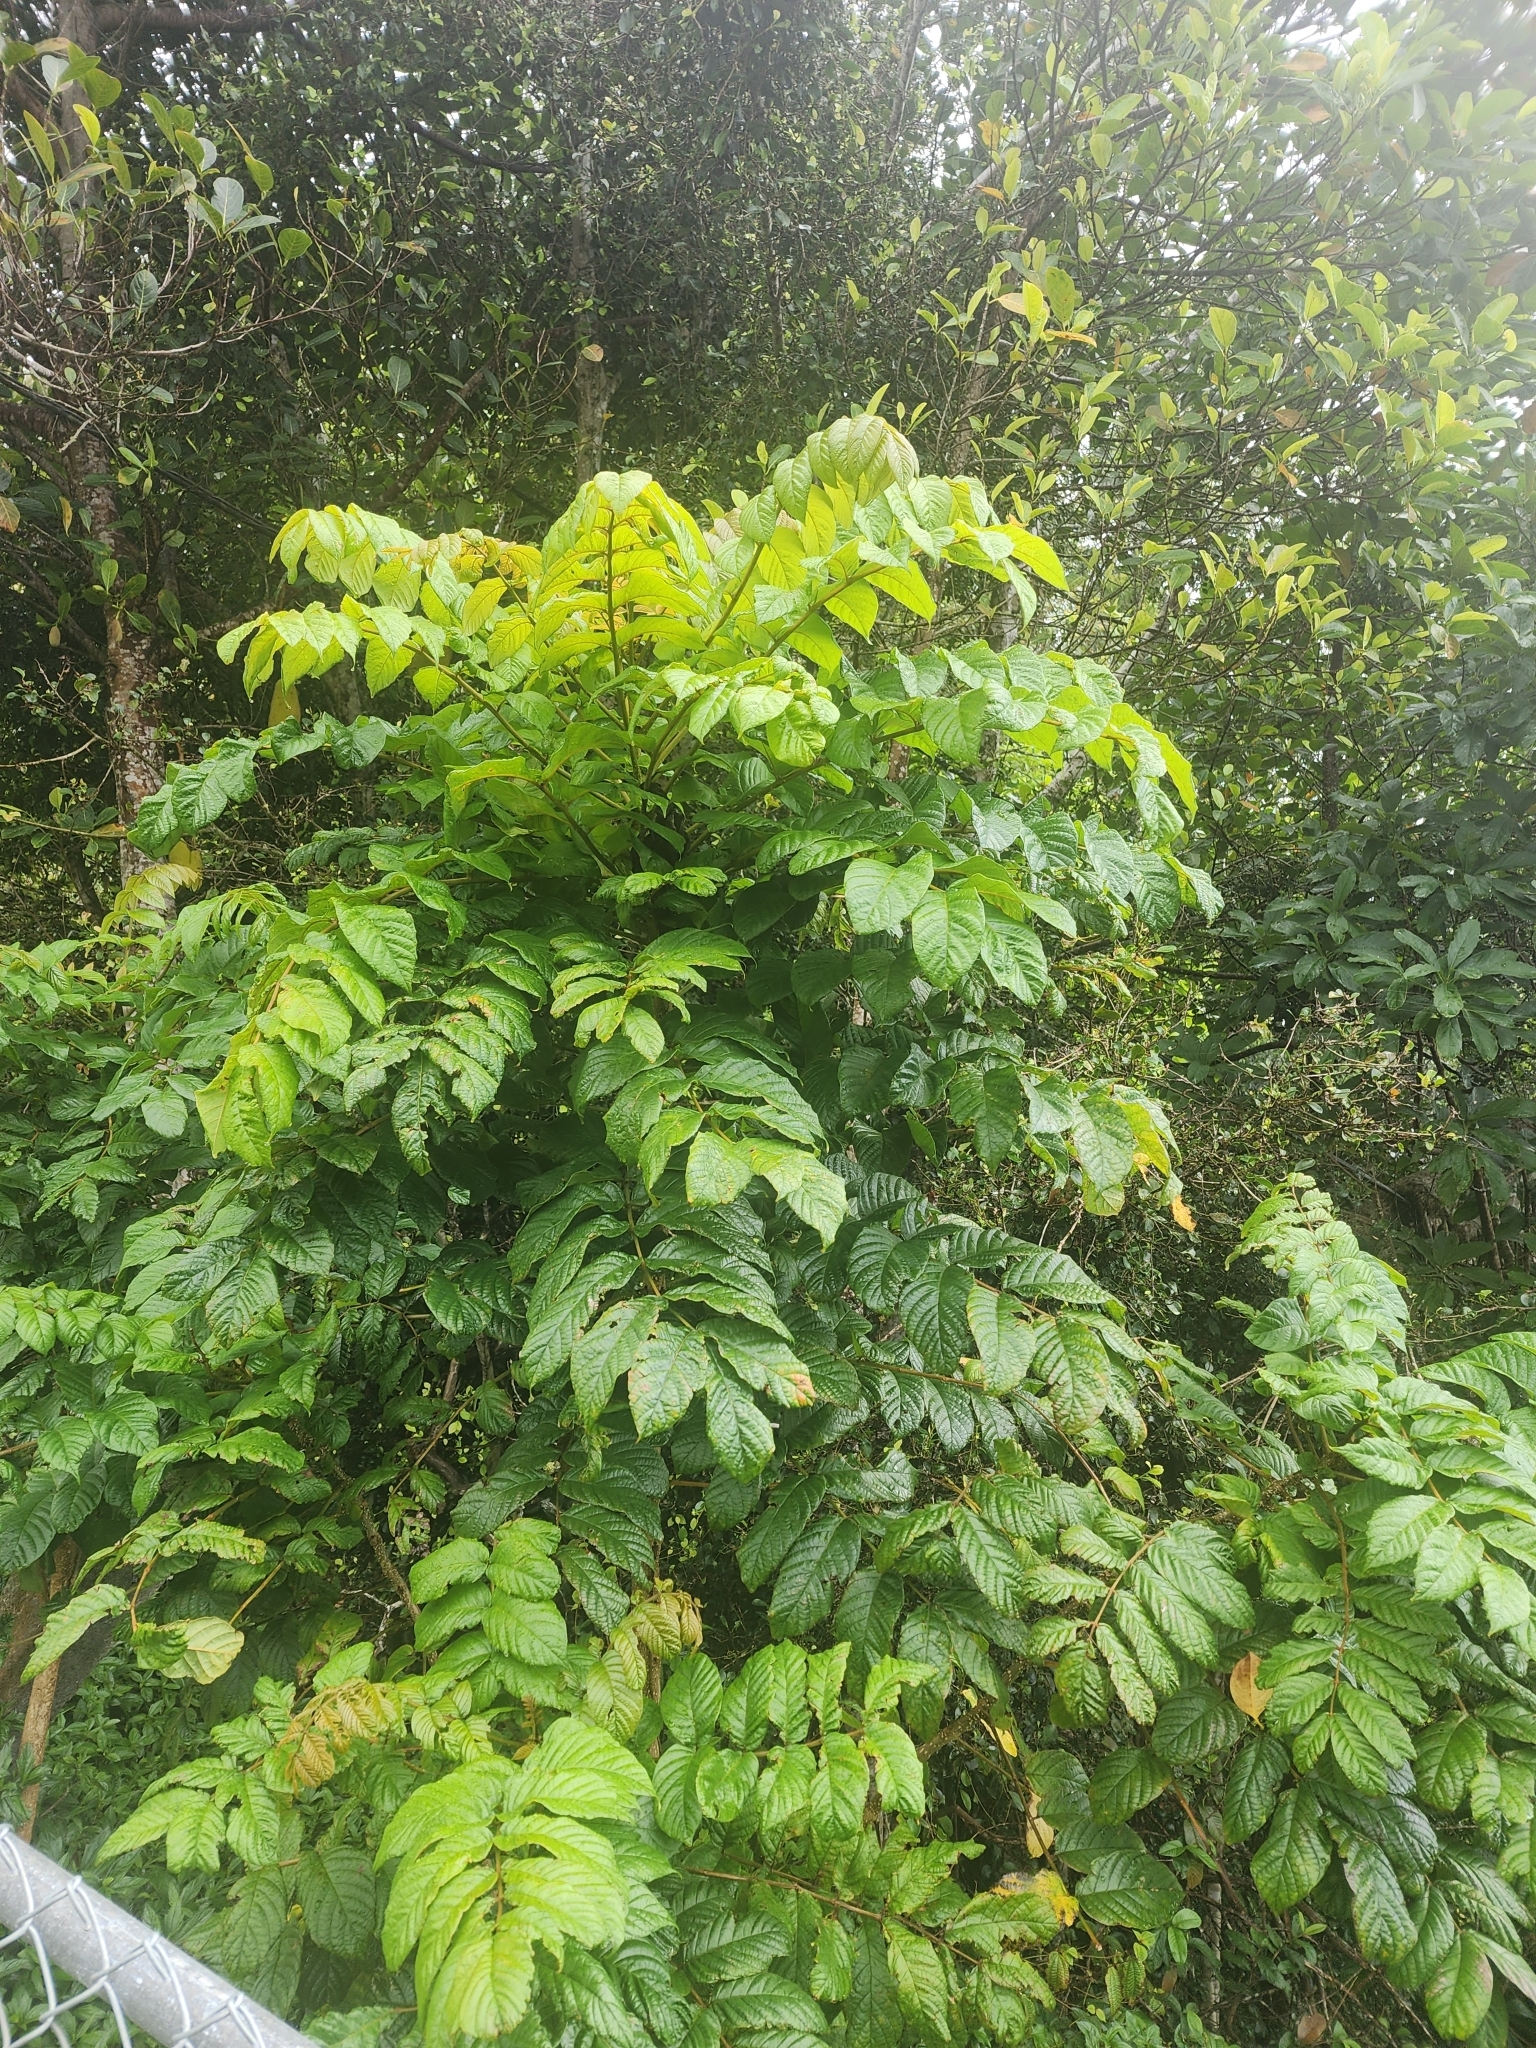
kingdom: Plantae
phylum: Tracheophyta
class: Magnoliopsida
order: Lamiales
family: Bignoniaceae
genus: Spathodea
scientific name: Spathodea campanulata
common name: African tuliptree
